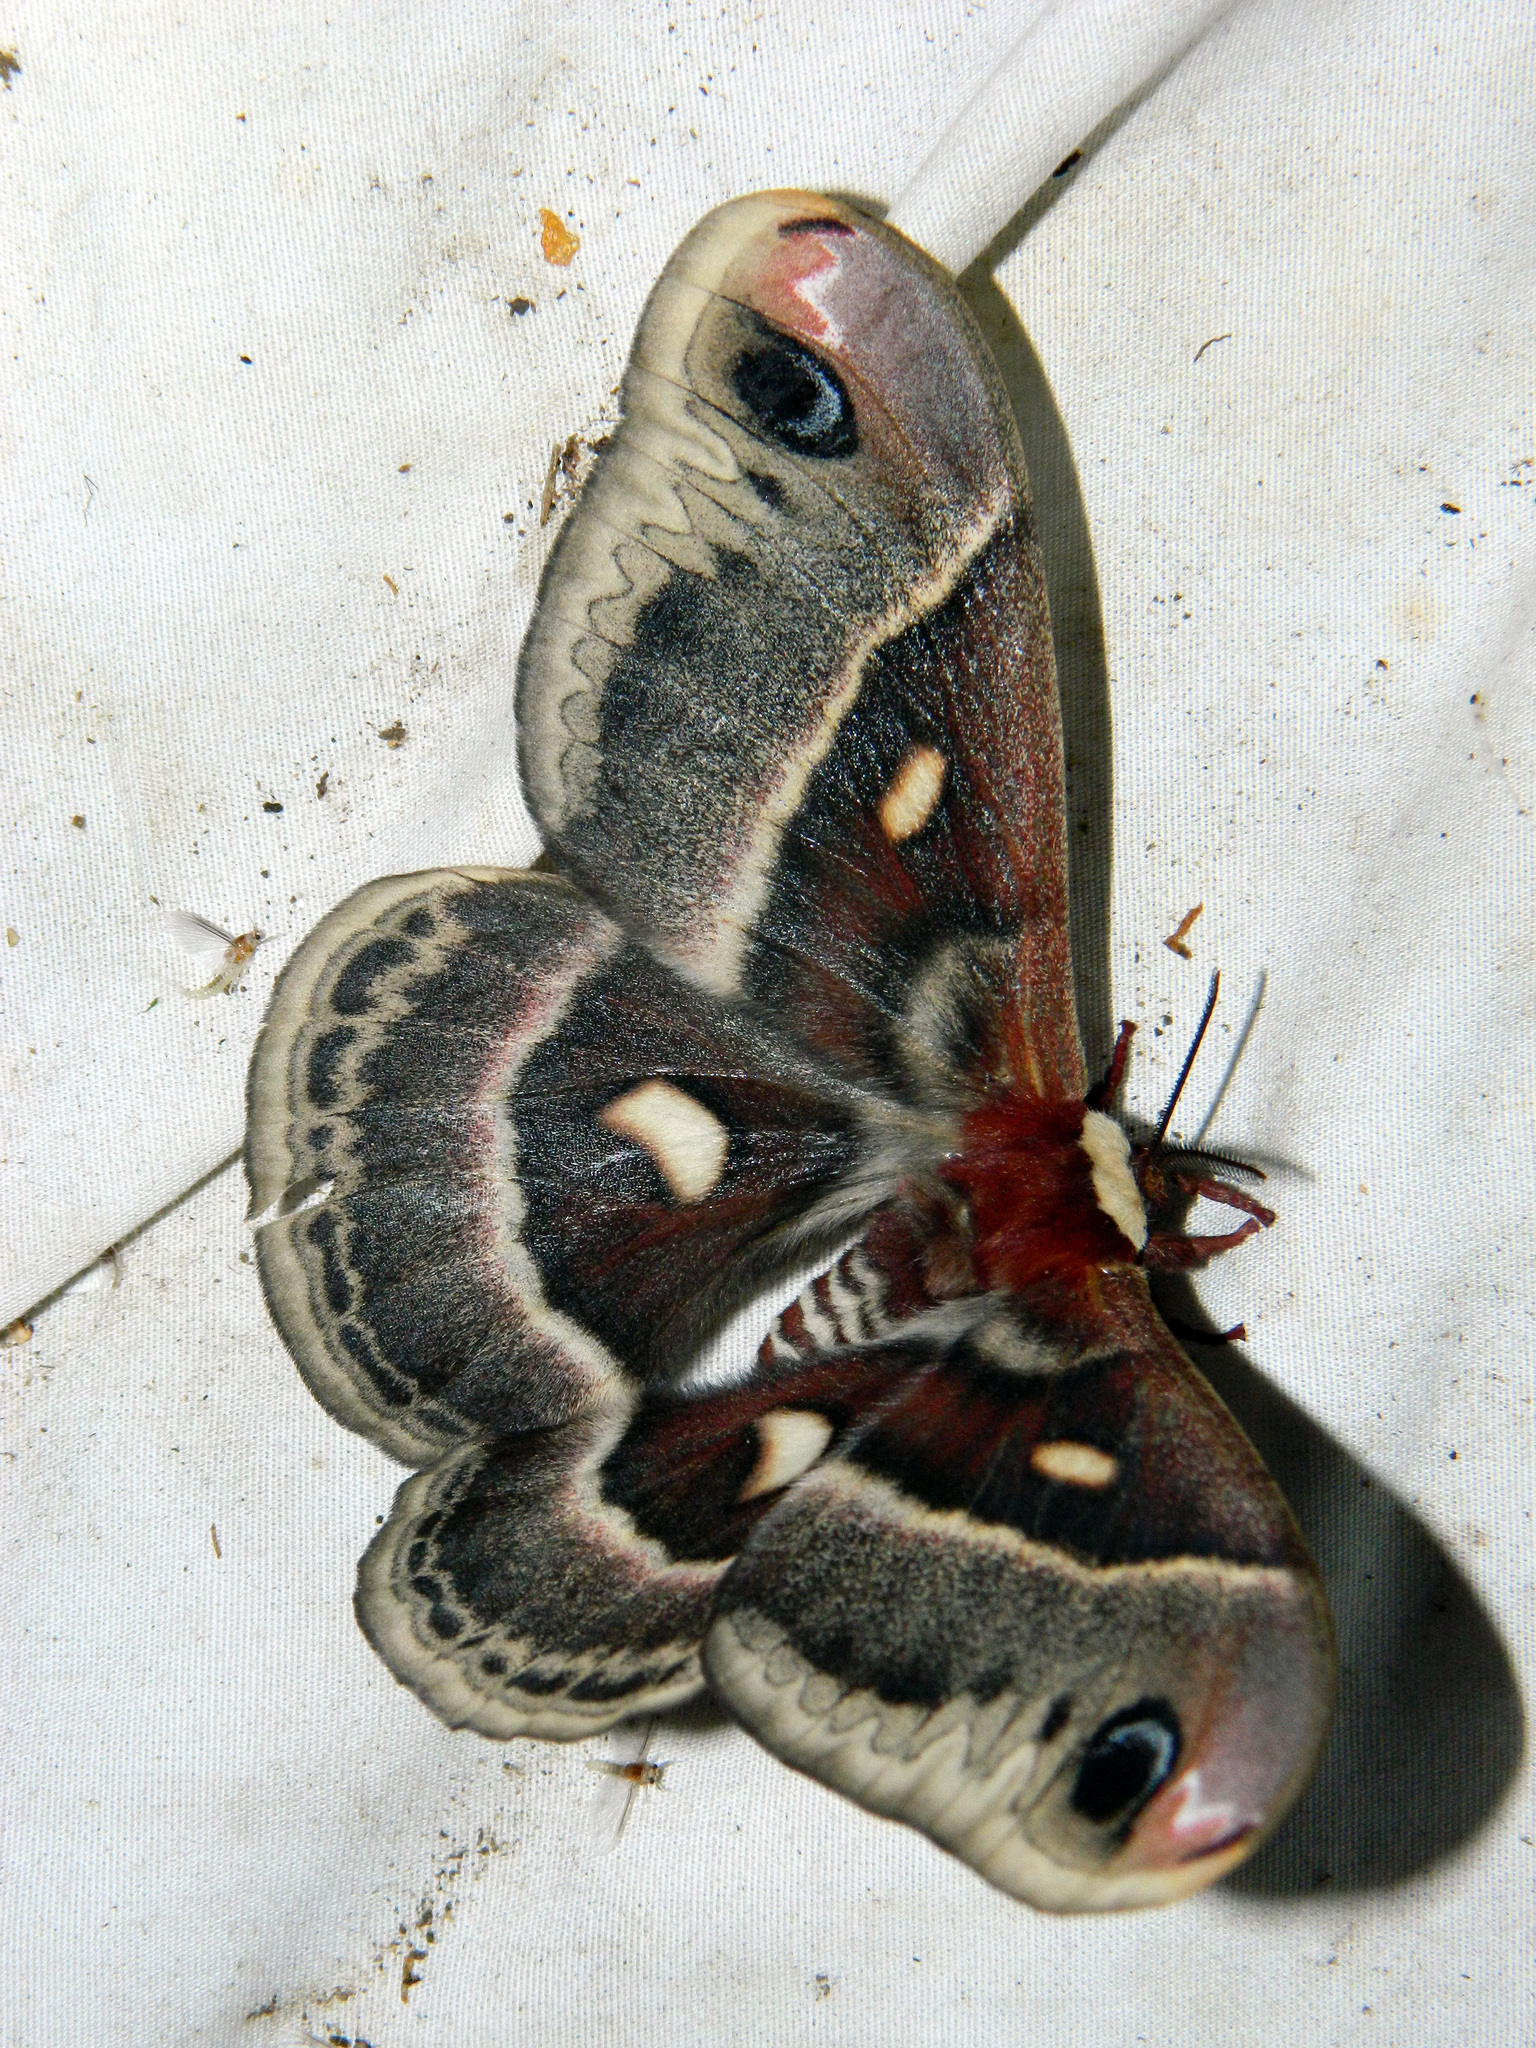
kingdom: Animalia
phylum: Arthropoda
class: Insecta
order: Lepidoptera
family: Saturniidae
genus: Hyalophora
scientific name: Hyalophora columbia
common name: Columbia silkmoth
